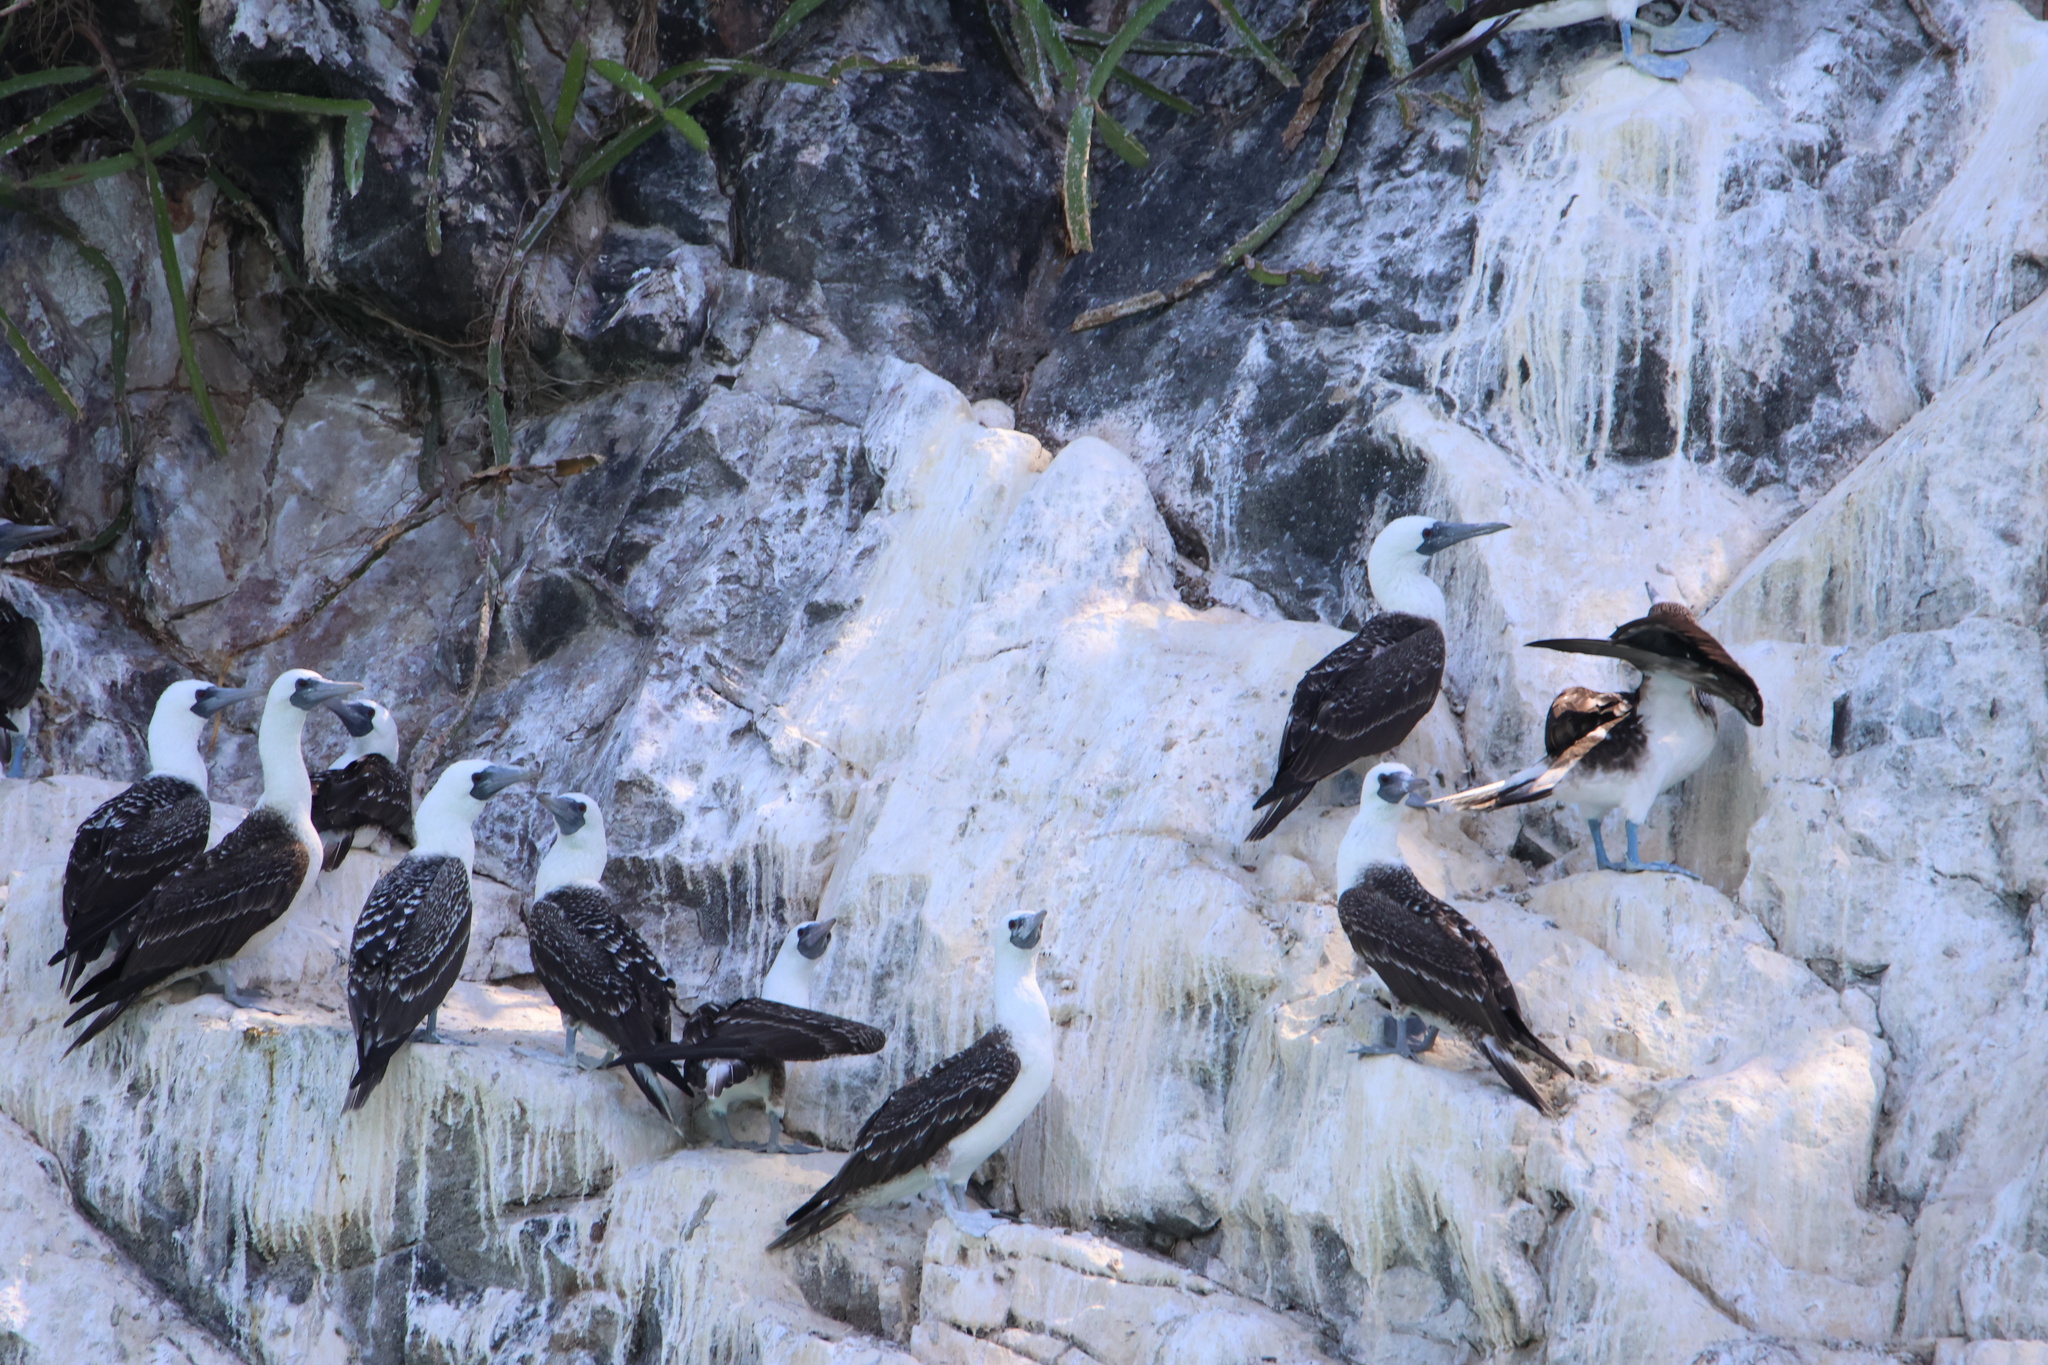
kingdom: Animalia
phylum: Chordata
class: Aves
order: Suliformes
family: Sulidae
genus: Sula
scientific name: Sula variegata
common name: Peruvian booby
